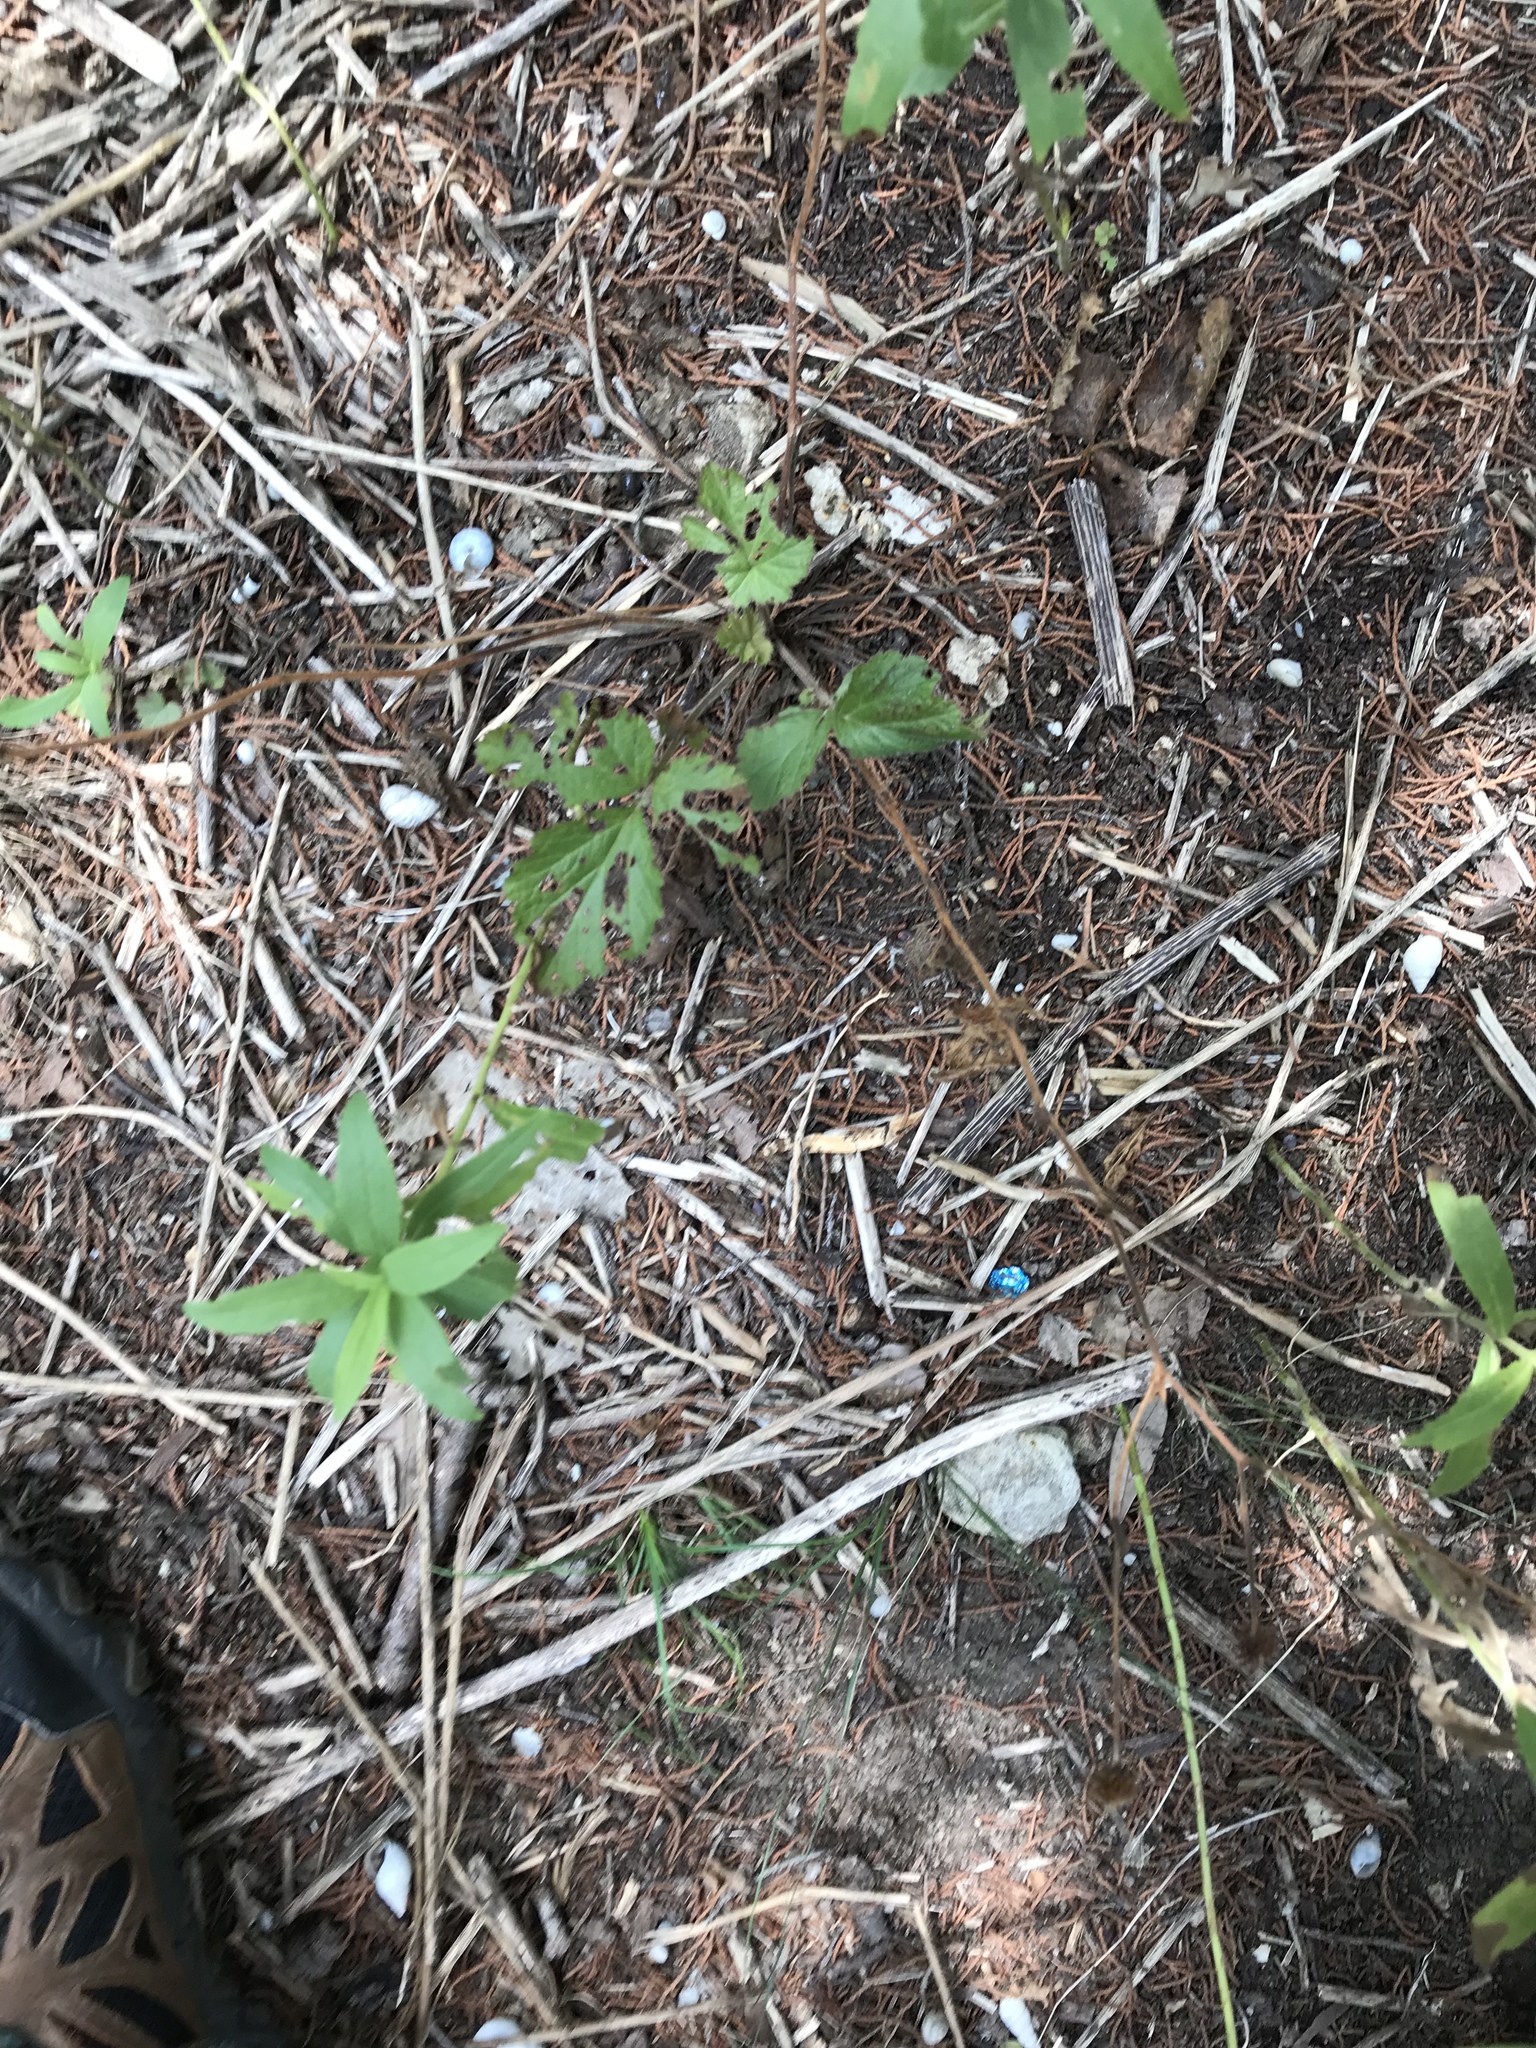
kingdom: Plantae
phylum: Tracheophyta
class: Magnoliopsida
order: Rosales
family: Rosaceae
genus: Geum
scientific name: Geum canadense
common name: White avens
